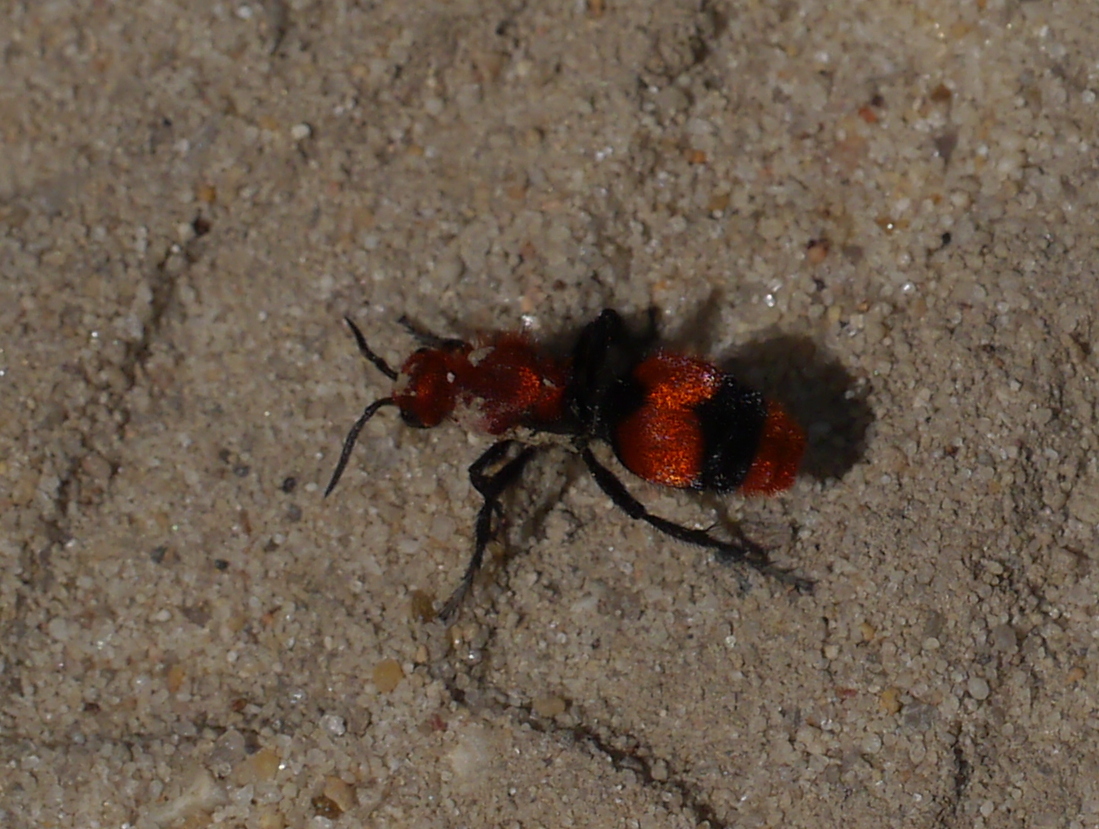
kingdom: Animalia
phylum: Arthropoda
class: Insecta
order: Hymenoptera
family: Mutillidae
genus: Dasymutilla
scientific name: Dasymutilla occidentalis
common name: Common eastern velvet ant
